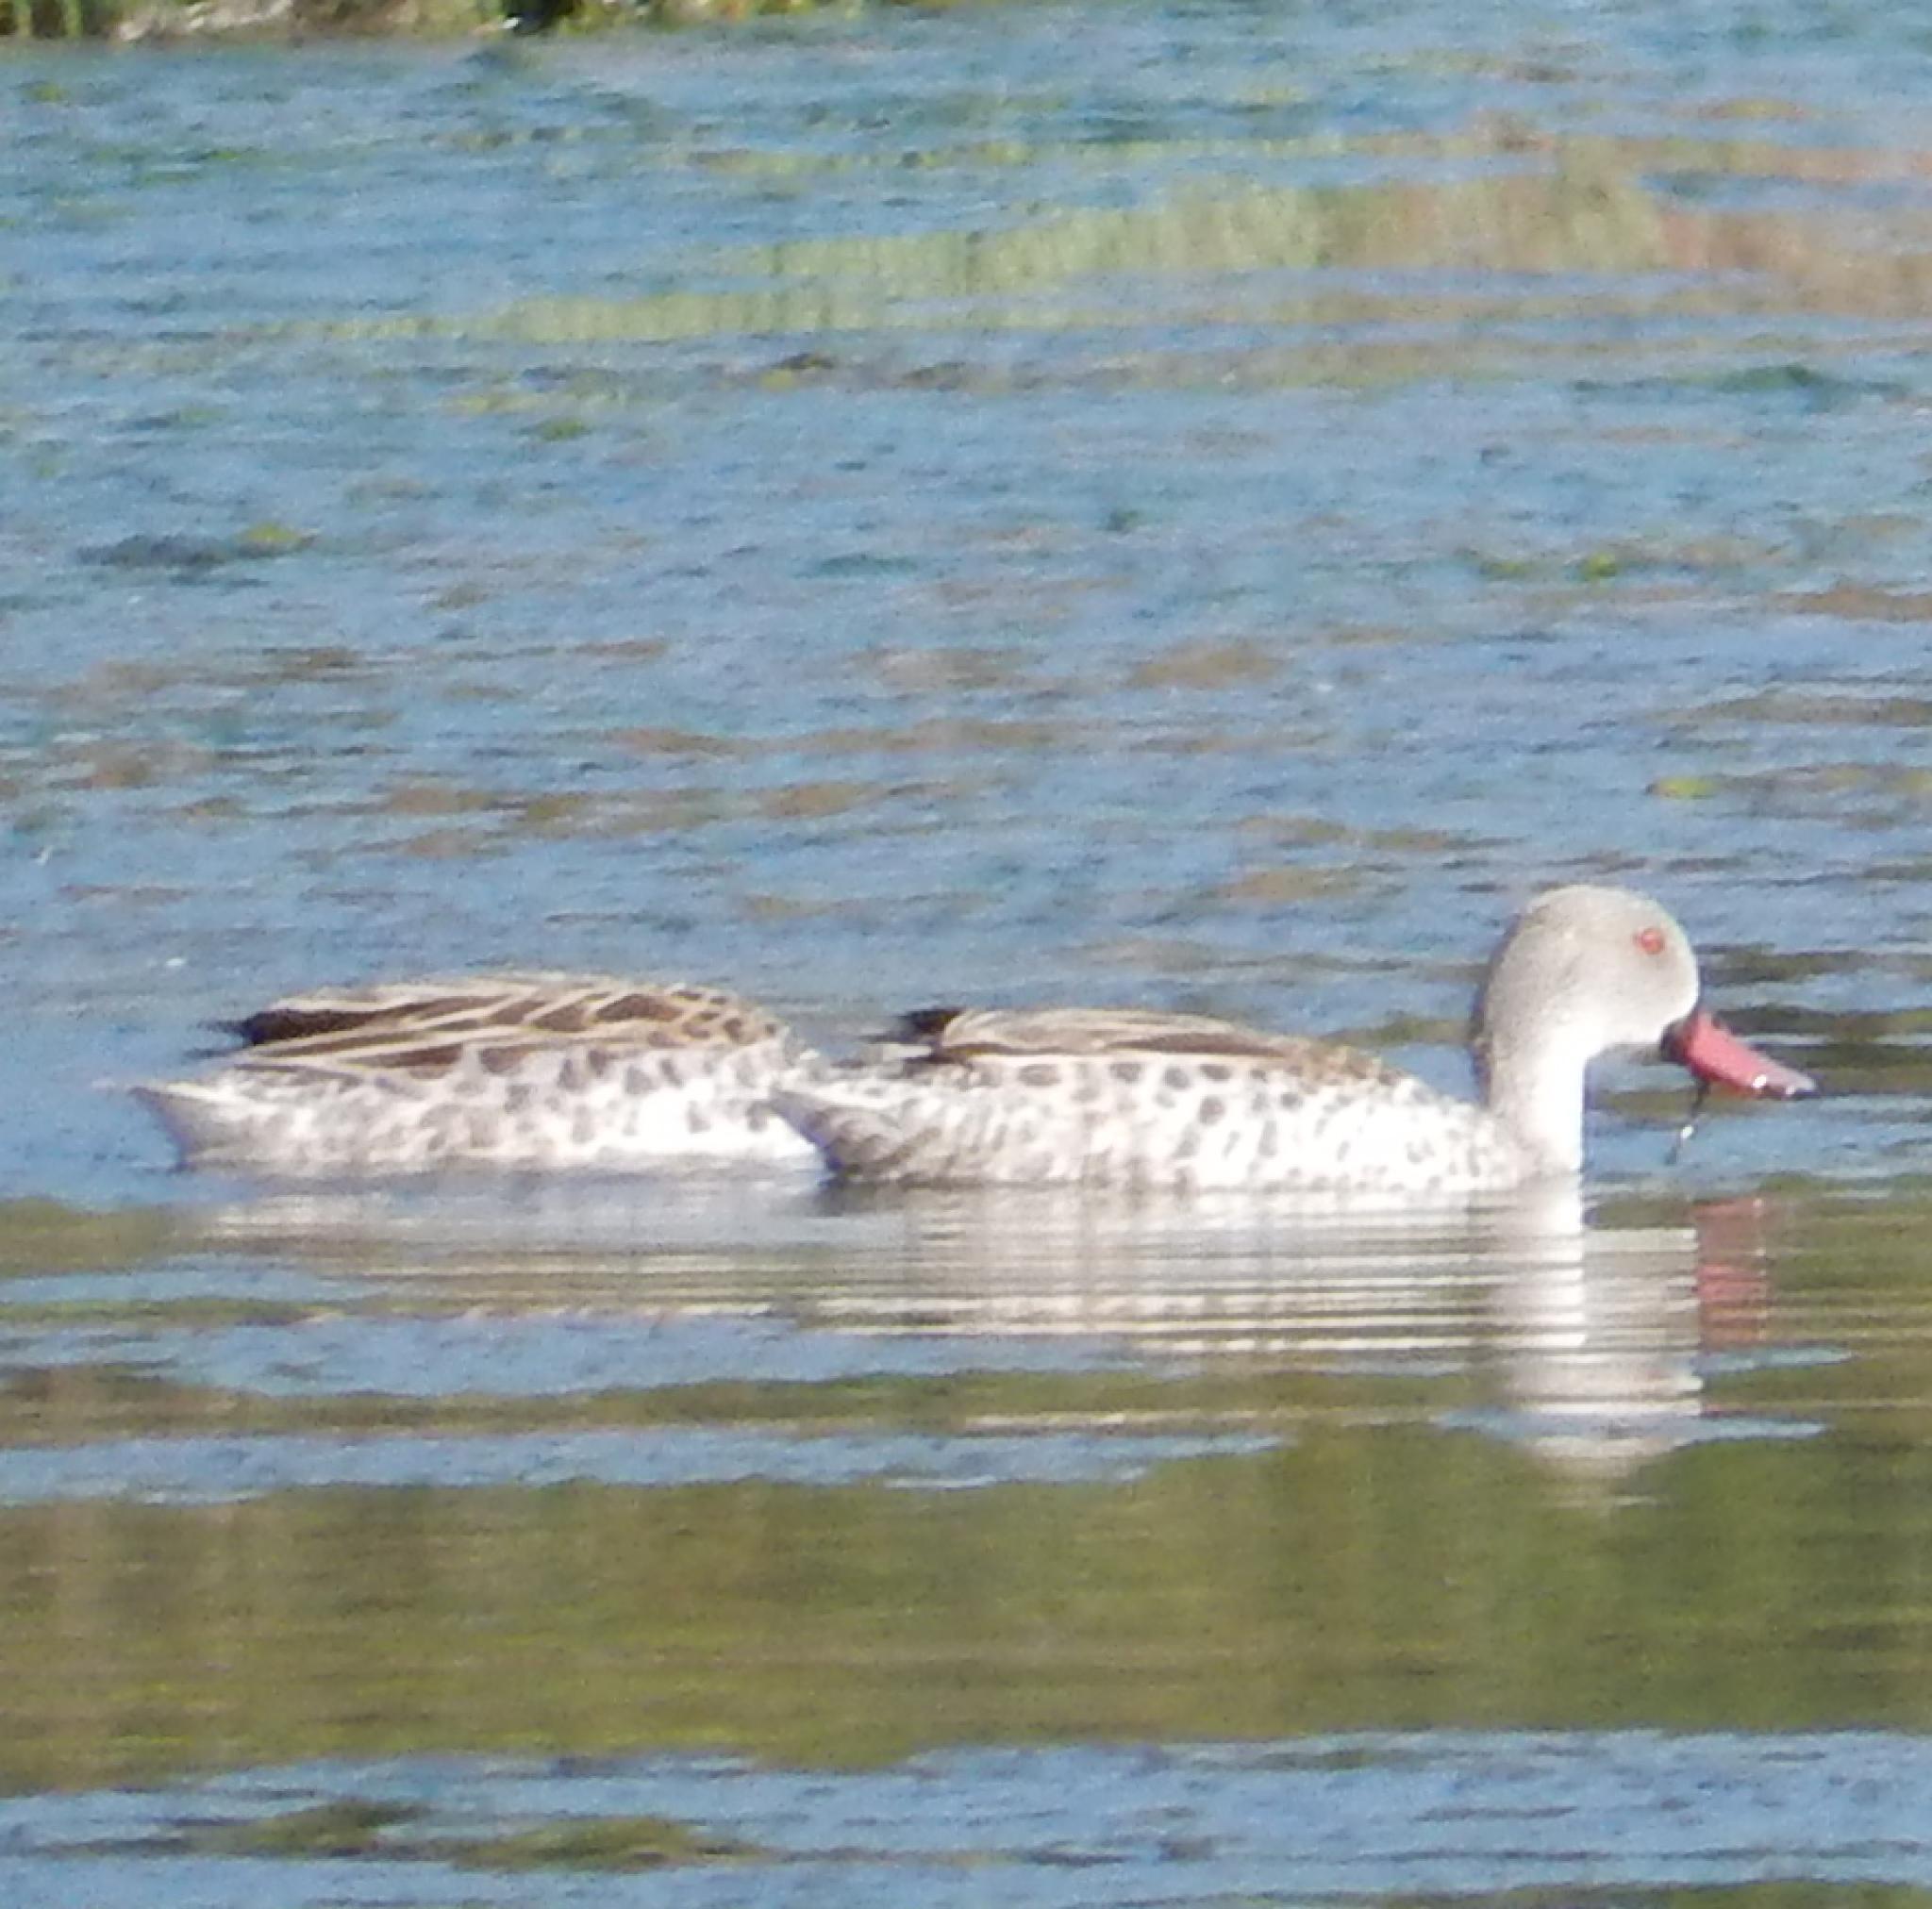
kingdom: Animalia
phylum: Chordata
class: Aves
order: Anseriformes
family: Anatidae
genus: Anas
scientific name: Anas capensis
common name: Cape teal
